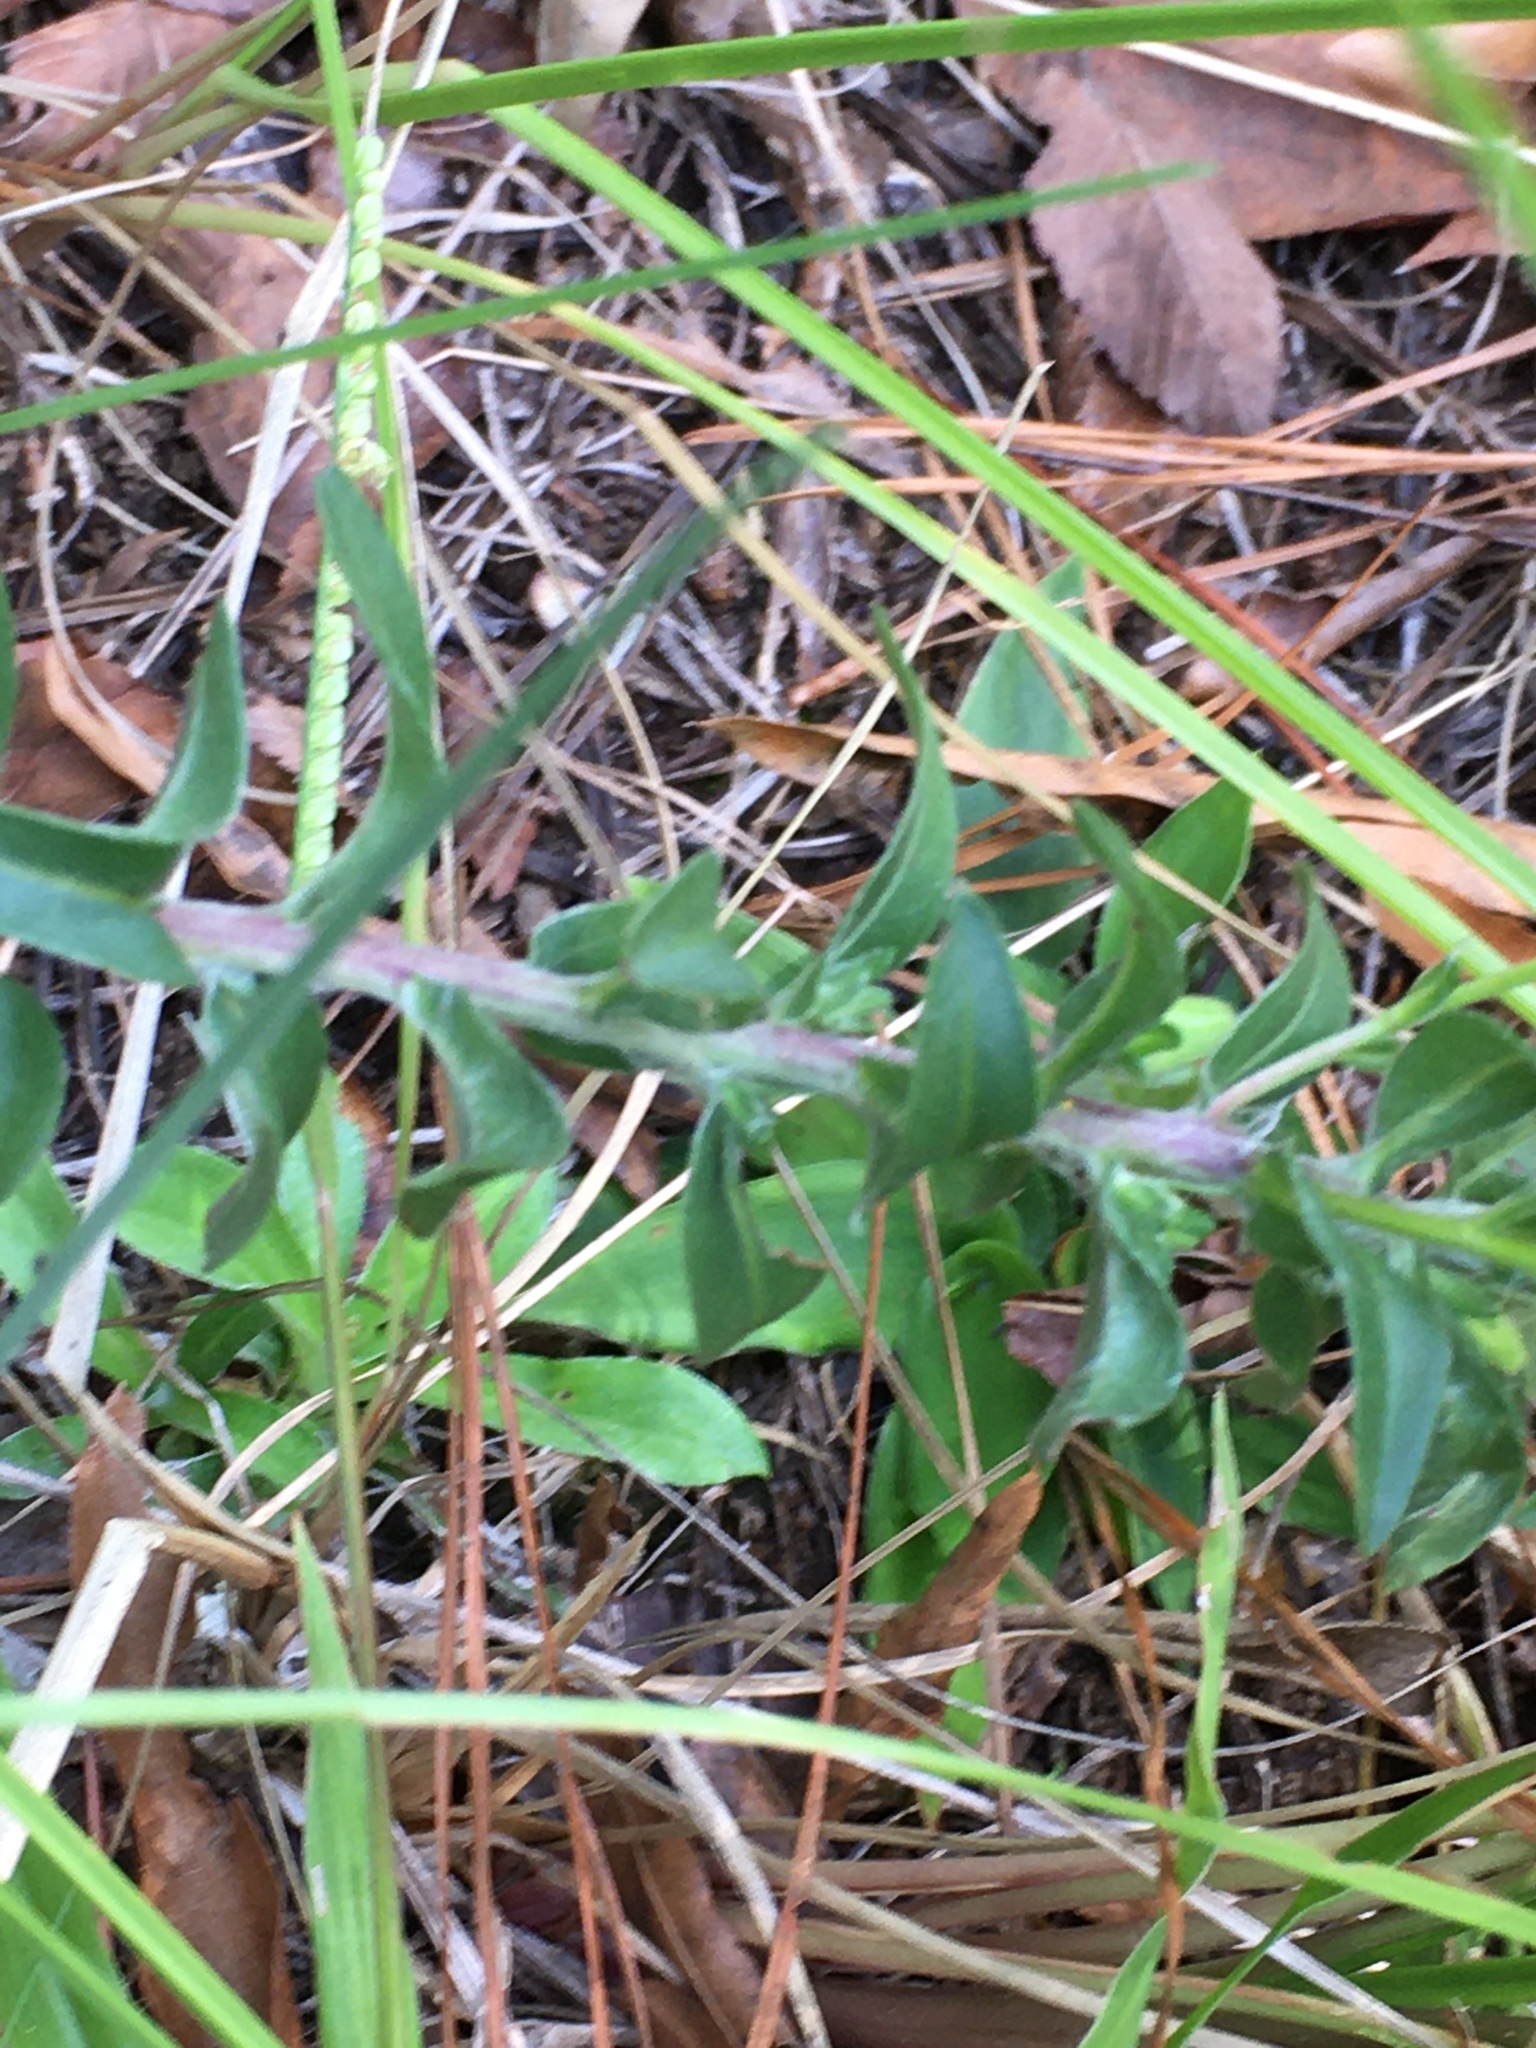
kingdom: Plantae
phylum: Tracheophyta
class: Magnoliopsida
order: Asterales
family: Asteraceae
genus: Chrysopsis
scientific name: Chrysopsis mariana
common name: Maryland golden-aster
